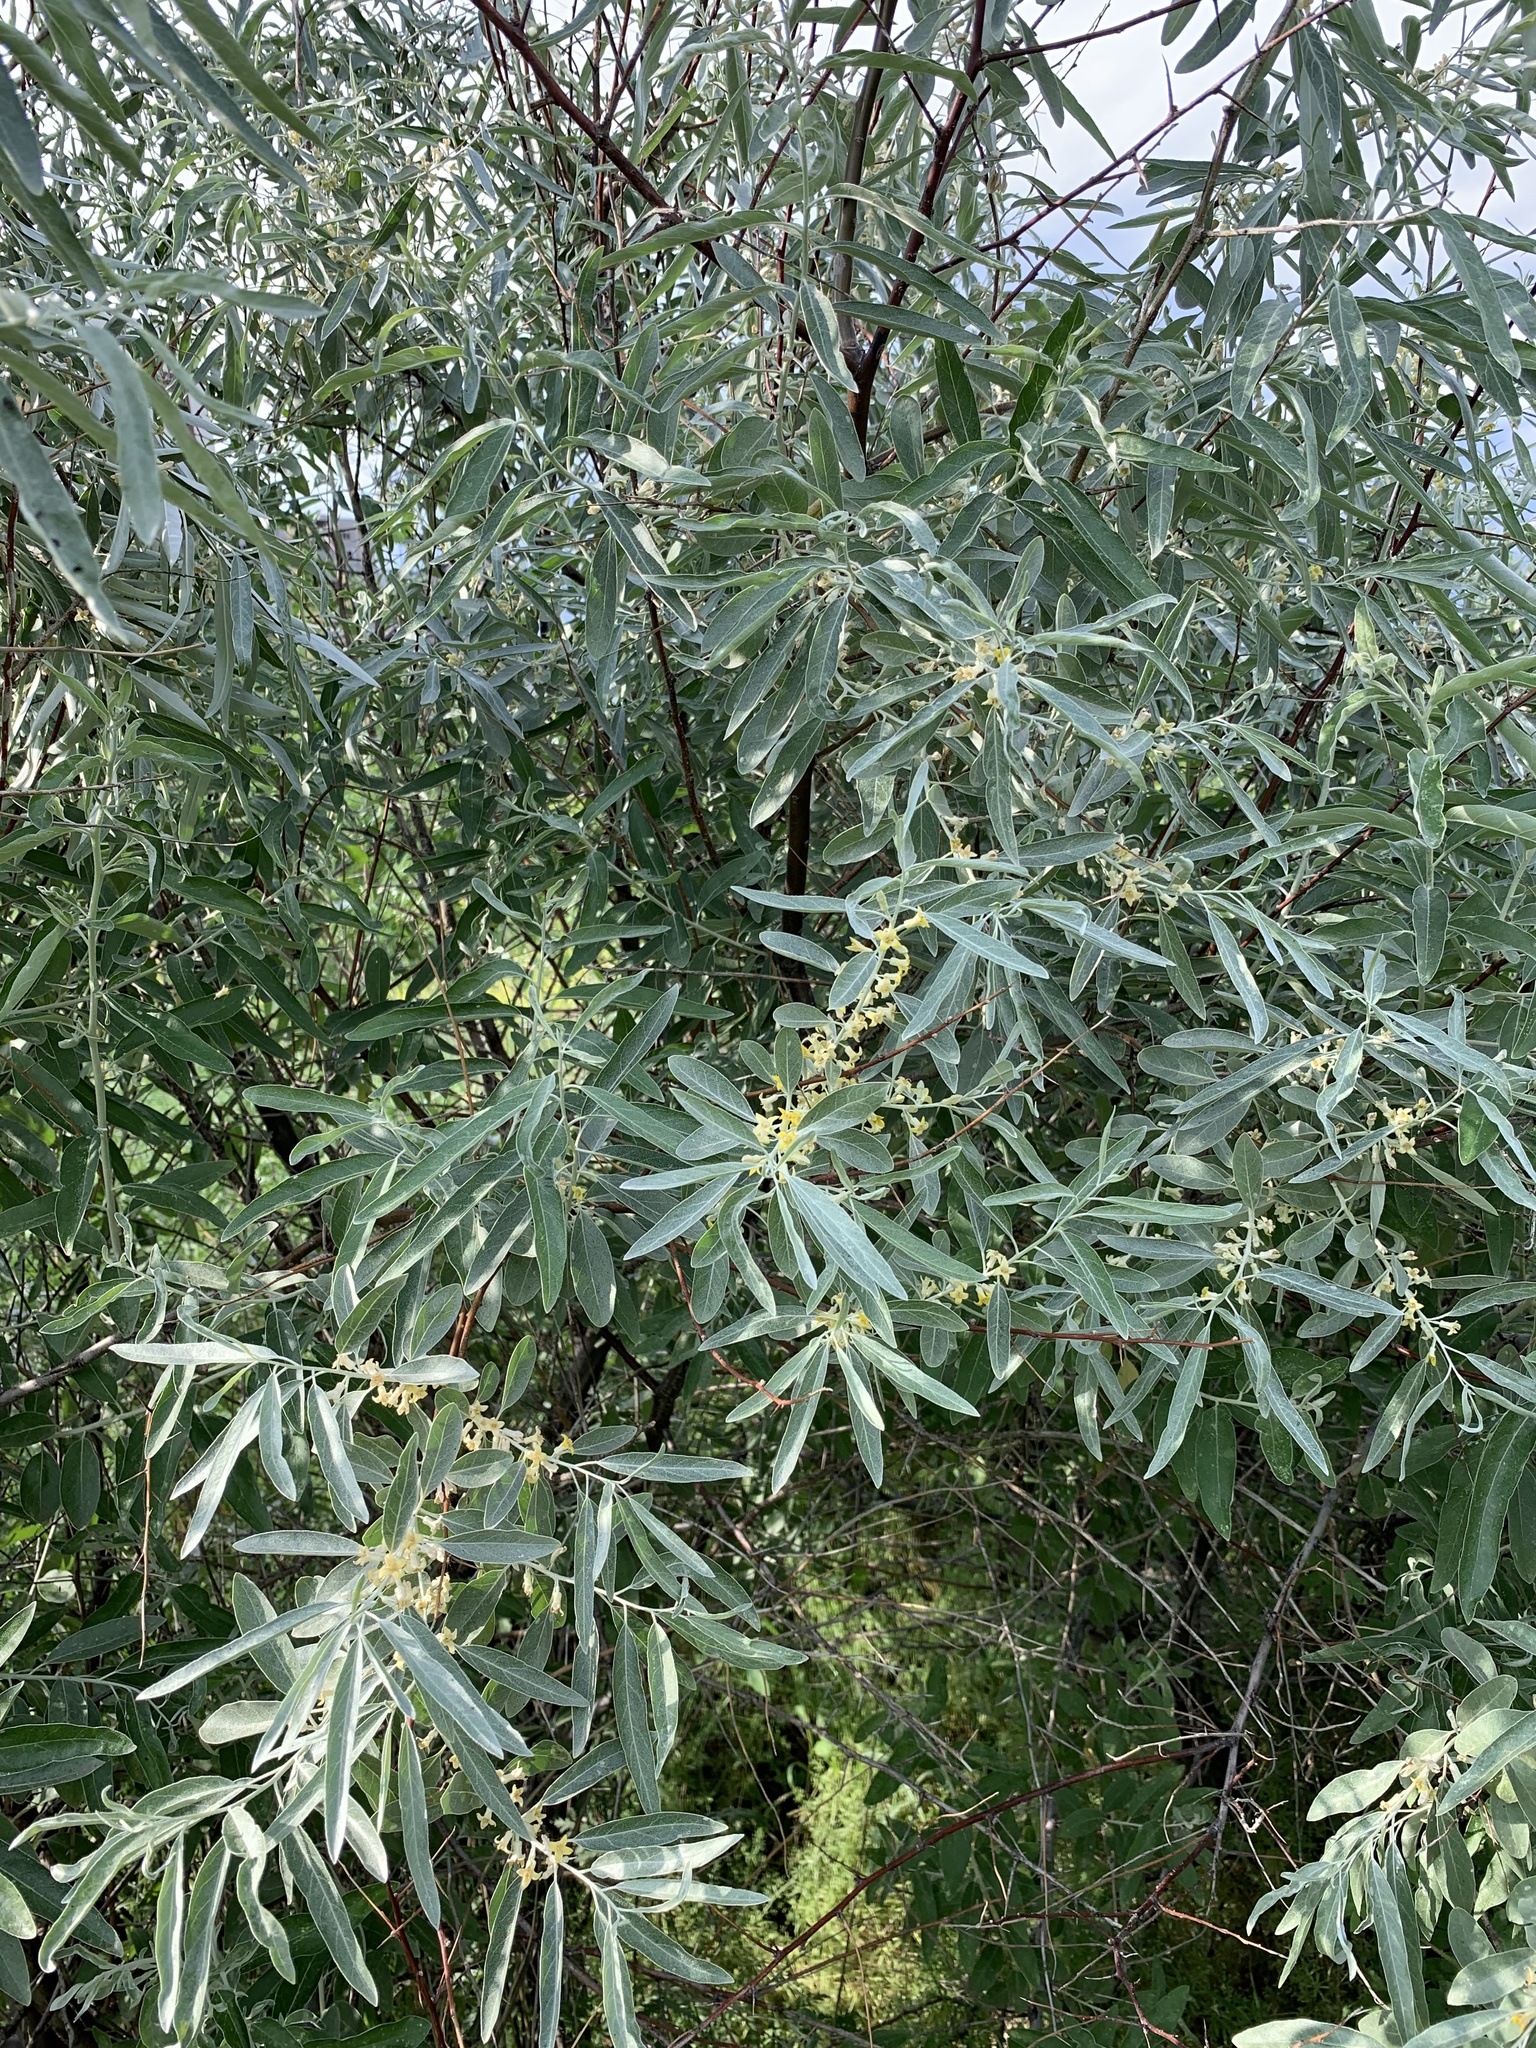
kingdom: Plantae
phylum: Tracheophyta
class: Magnoliopsida
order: Rosales
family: Elaeagnaceae
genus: Elaeagnus
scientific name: Elaeagnus angustifolia
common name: Russian olive
